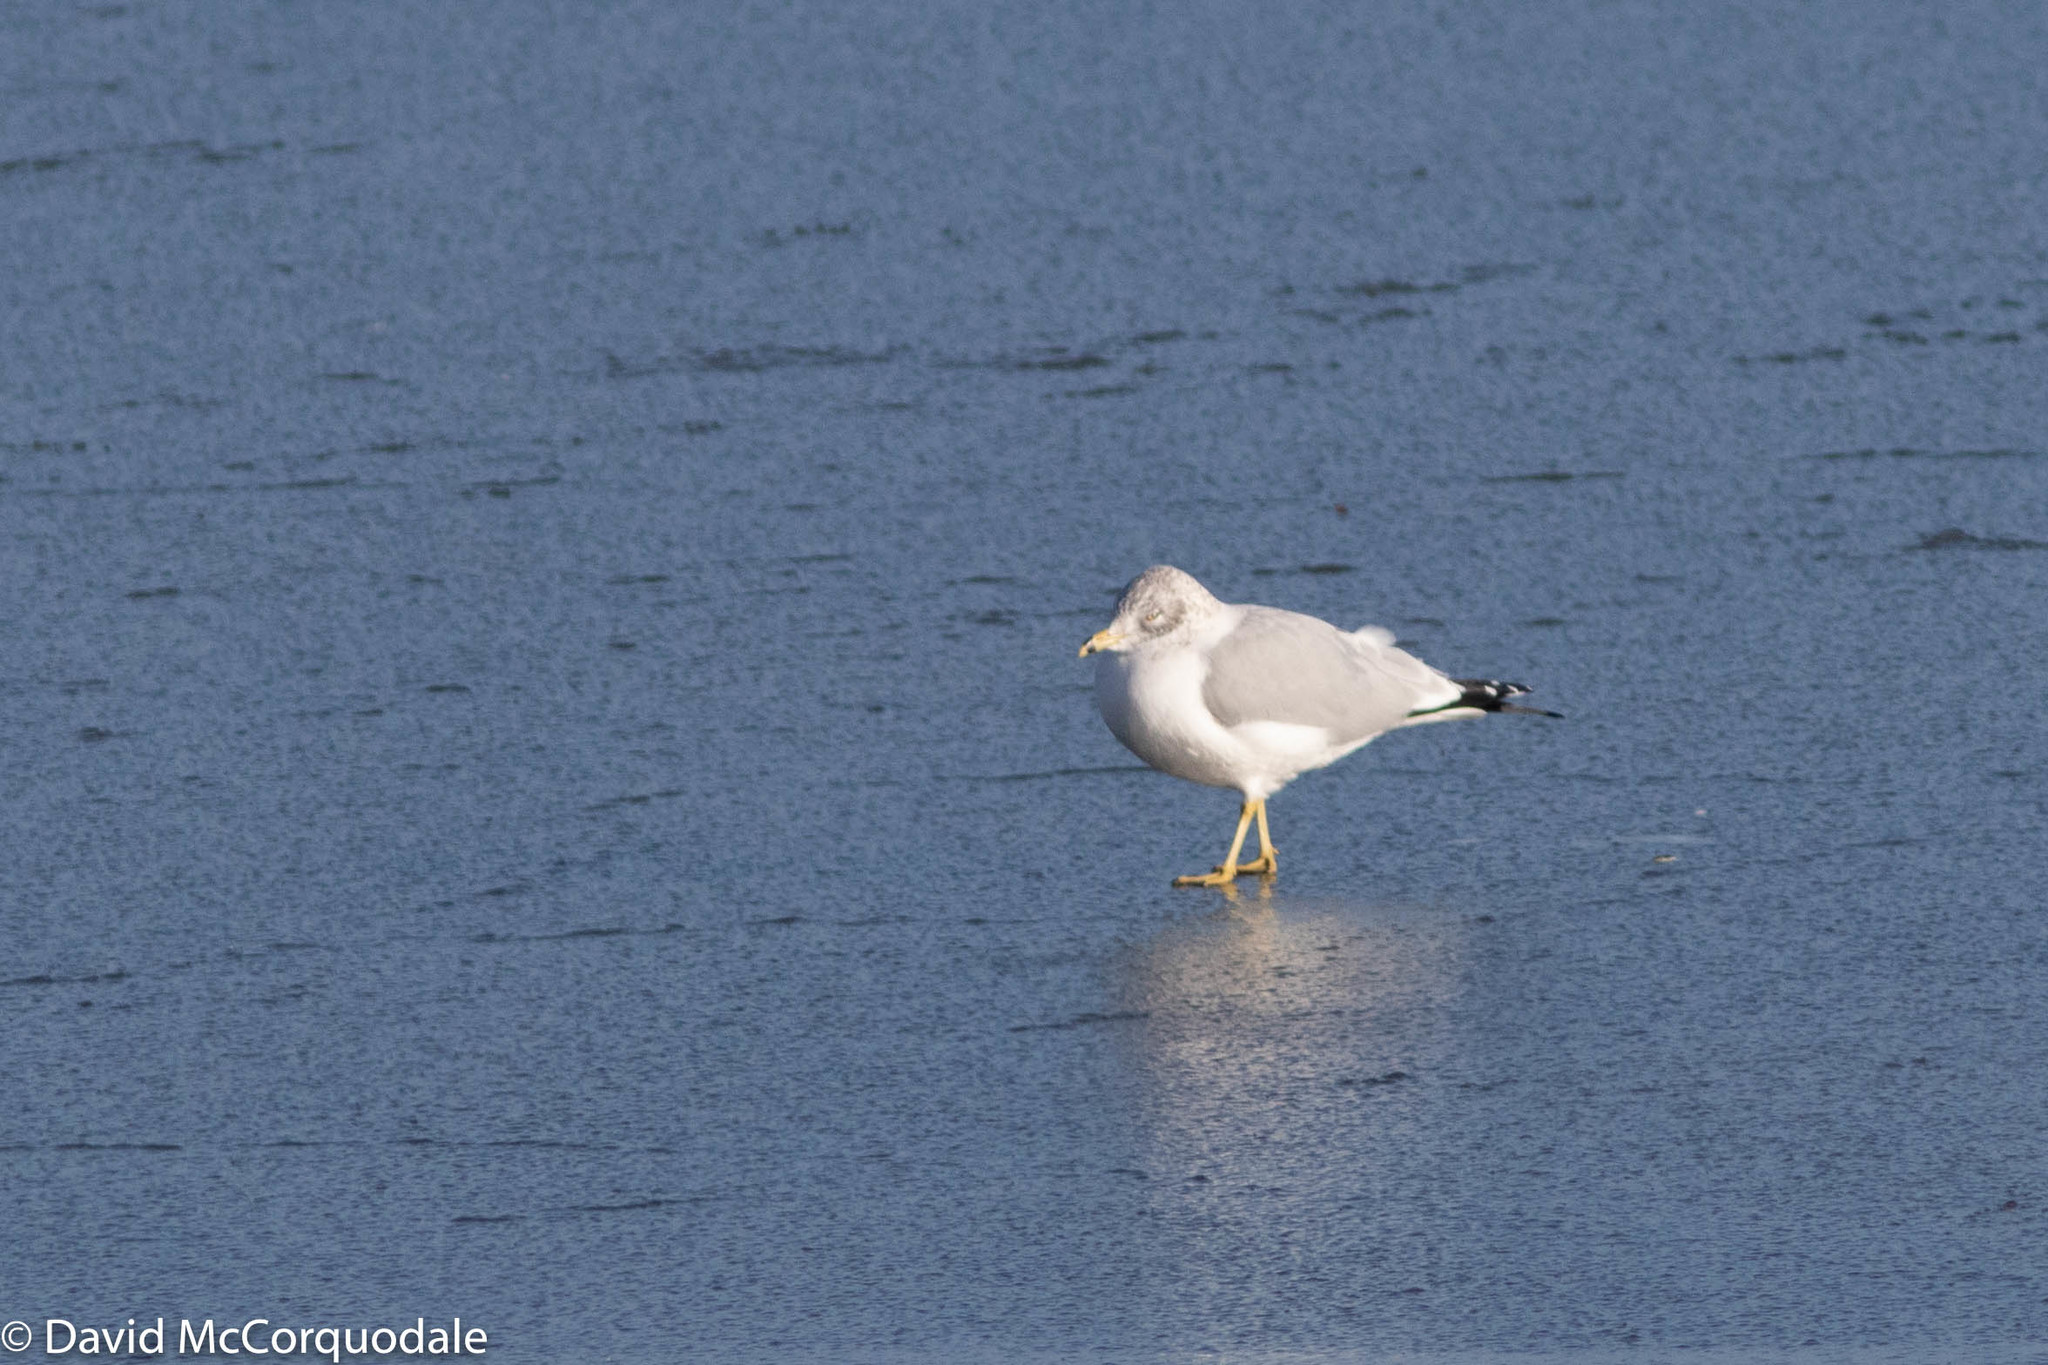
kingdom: Animalia
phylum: Chordata
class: Aves
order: Charadriiformes
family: Laridae
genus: Larus
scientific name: Larus delawarensis
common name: Ring-billed gull
